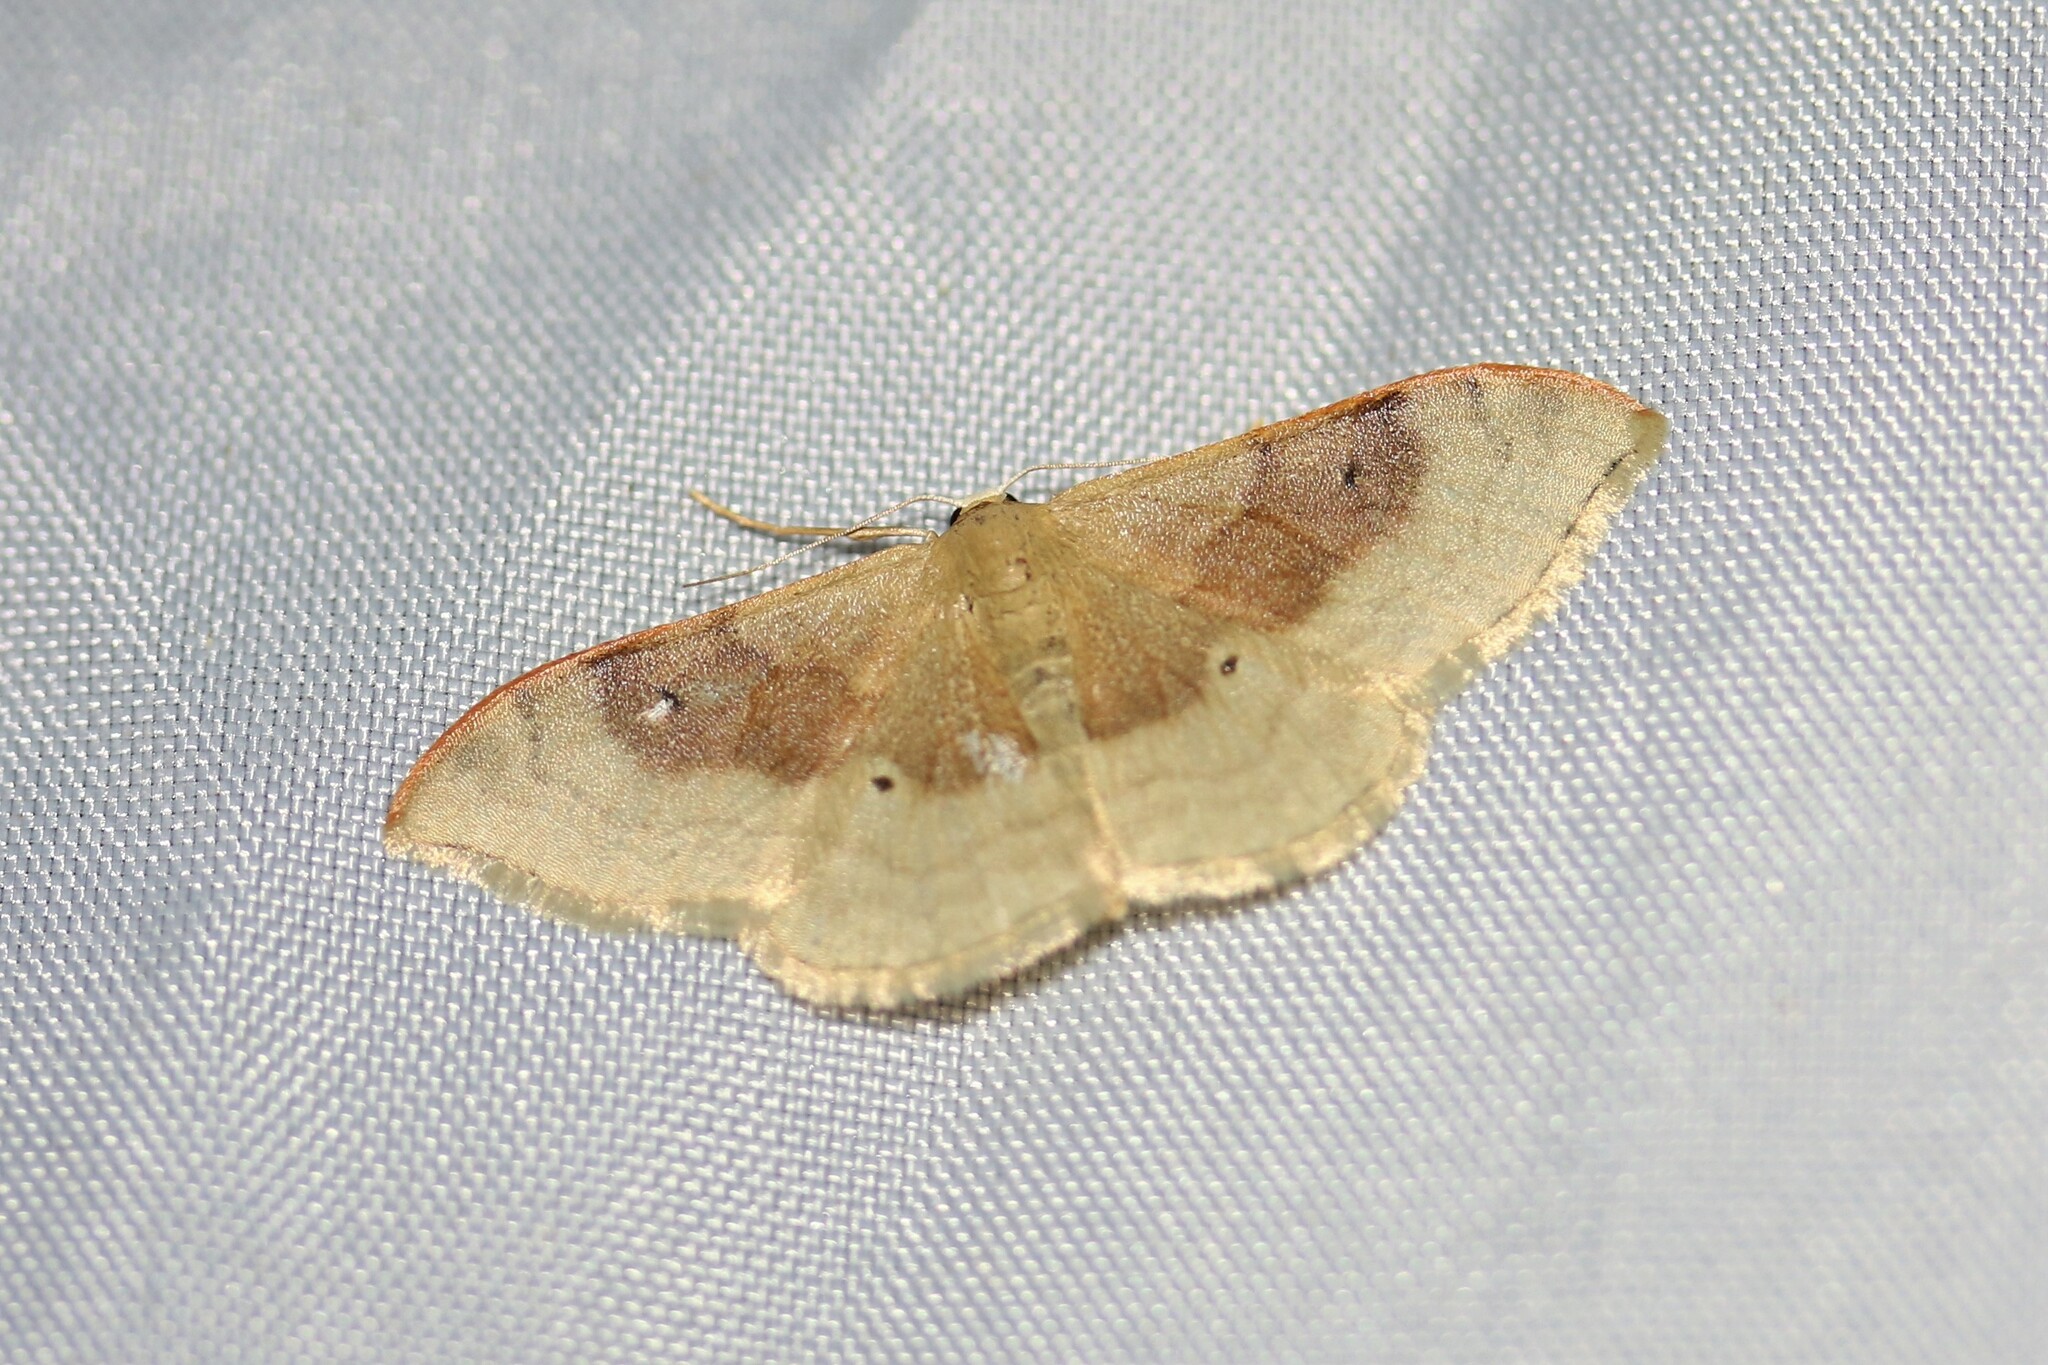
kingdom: Animalia
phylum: Arthropoda
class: Insecta
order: Lepidoptera
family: Geometridae
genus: Idaea
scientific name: Idaea degeneraria
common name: Portland ribbon wave
